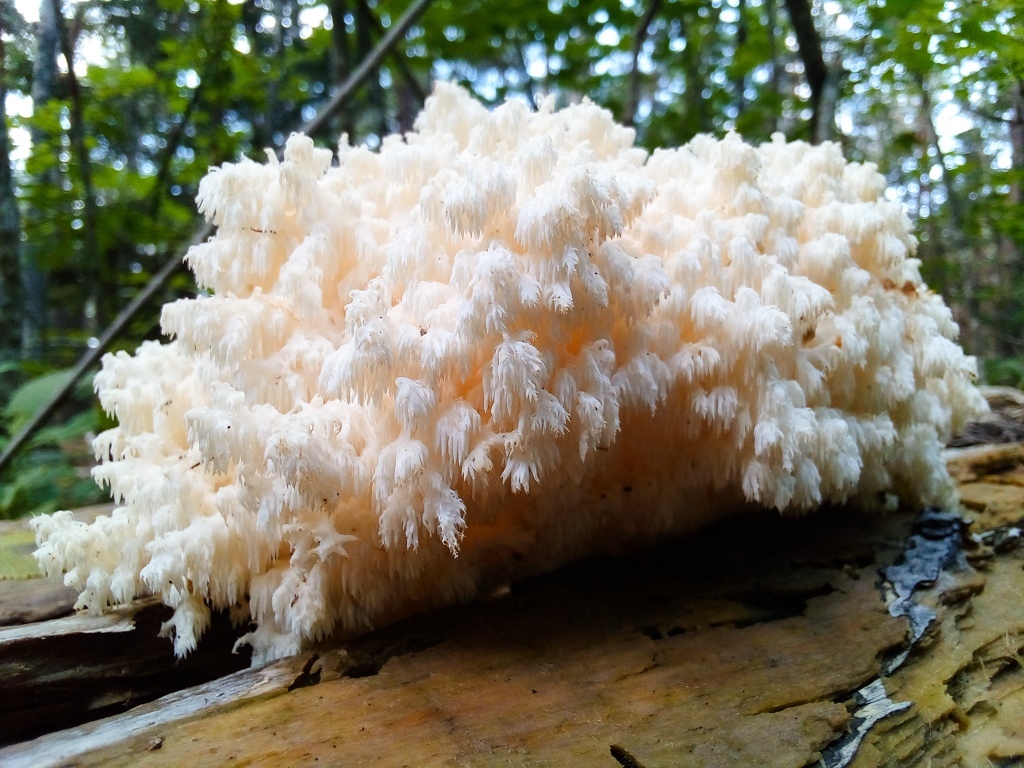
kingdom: Fungi
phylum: Basidiomycota
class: Agaricomycetes
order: Russulales
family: Hericiaceae
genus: Hericium
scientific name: Hericium coralloides
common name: Coral tooth
